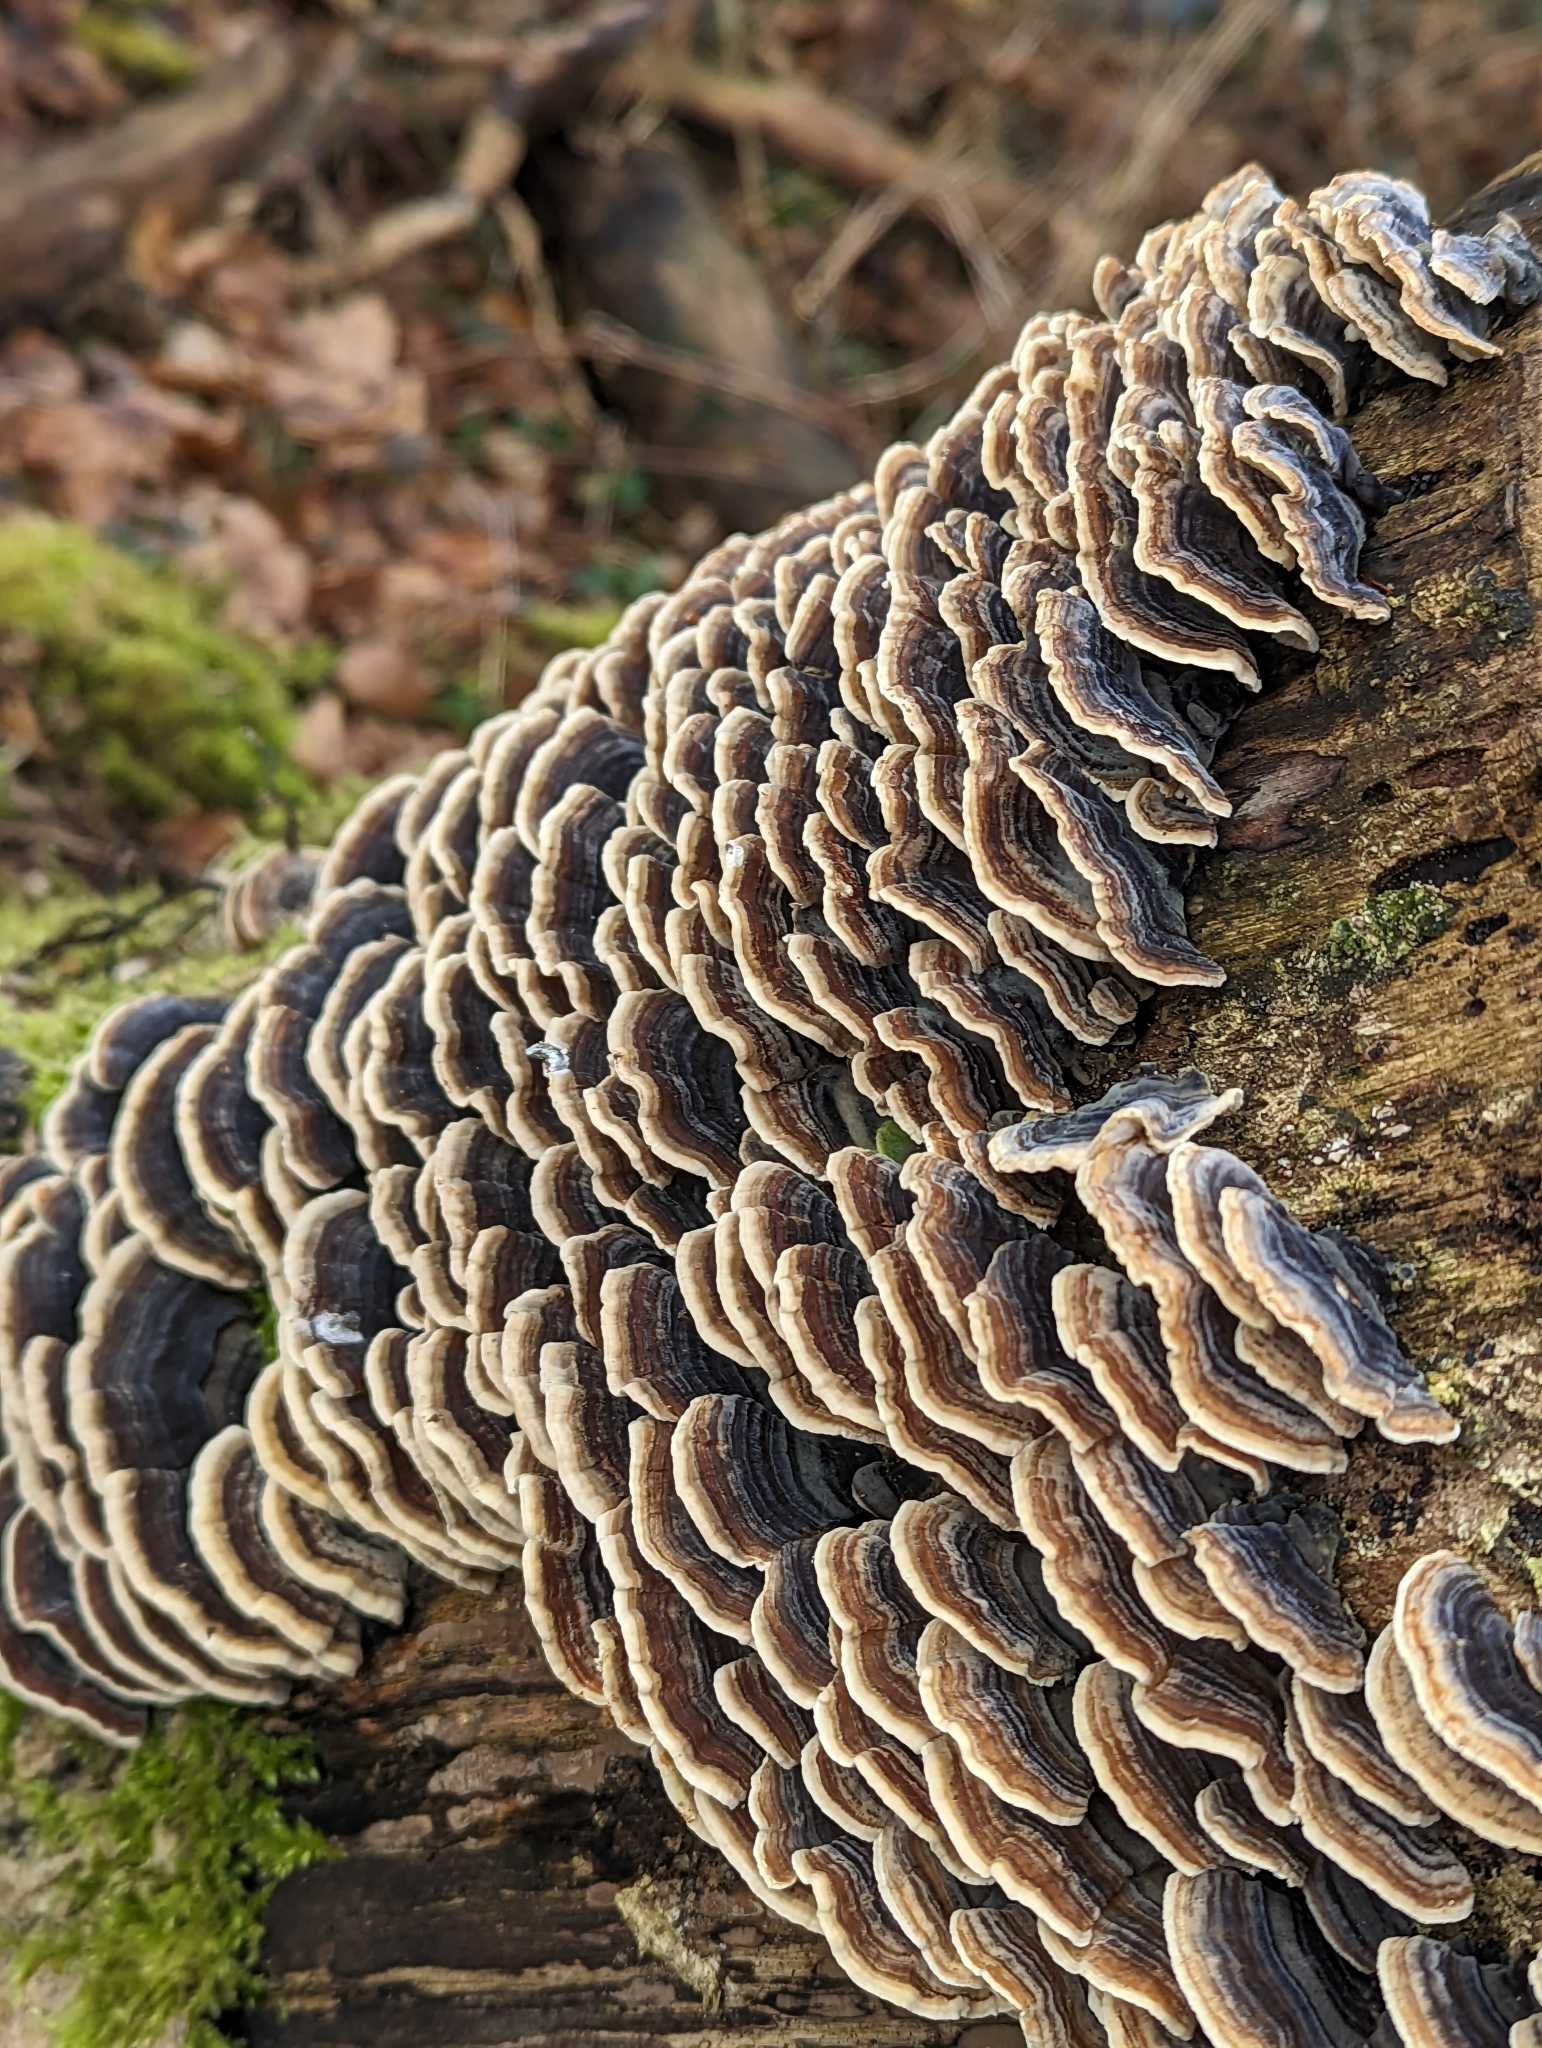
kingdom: Fungi
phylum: Basidiomycota
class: Agaricomycetes
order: Polyporales
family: Polyporaceae
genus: Trametes
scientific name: Trametes versicolor
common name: Turkeytail
